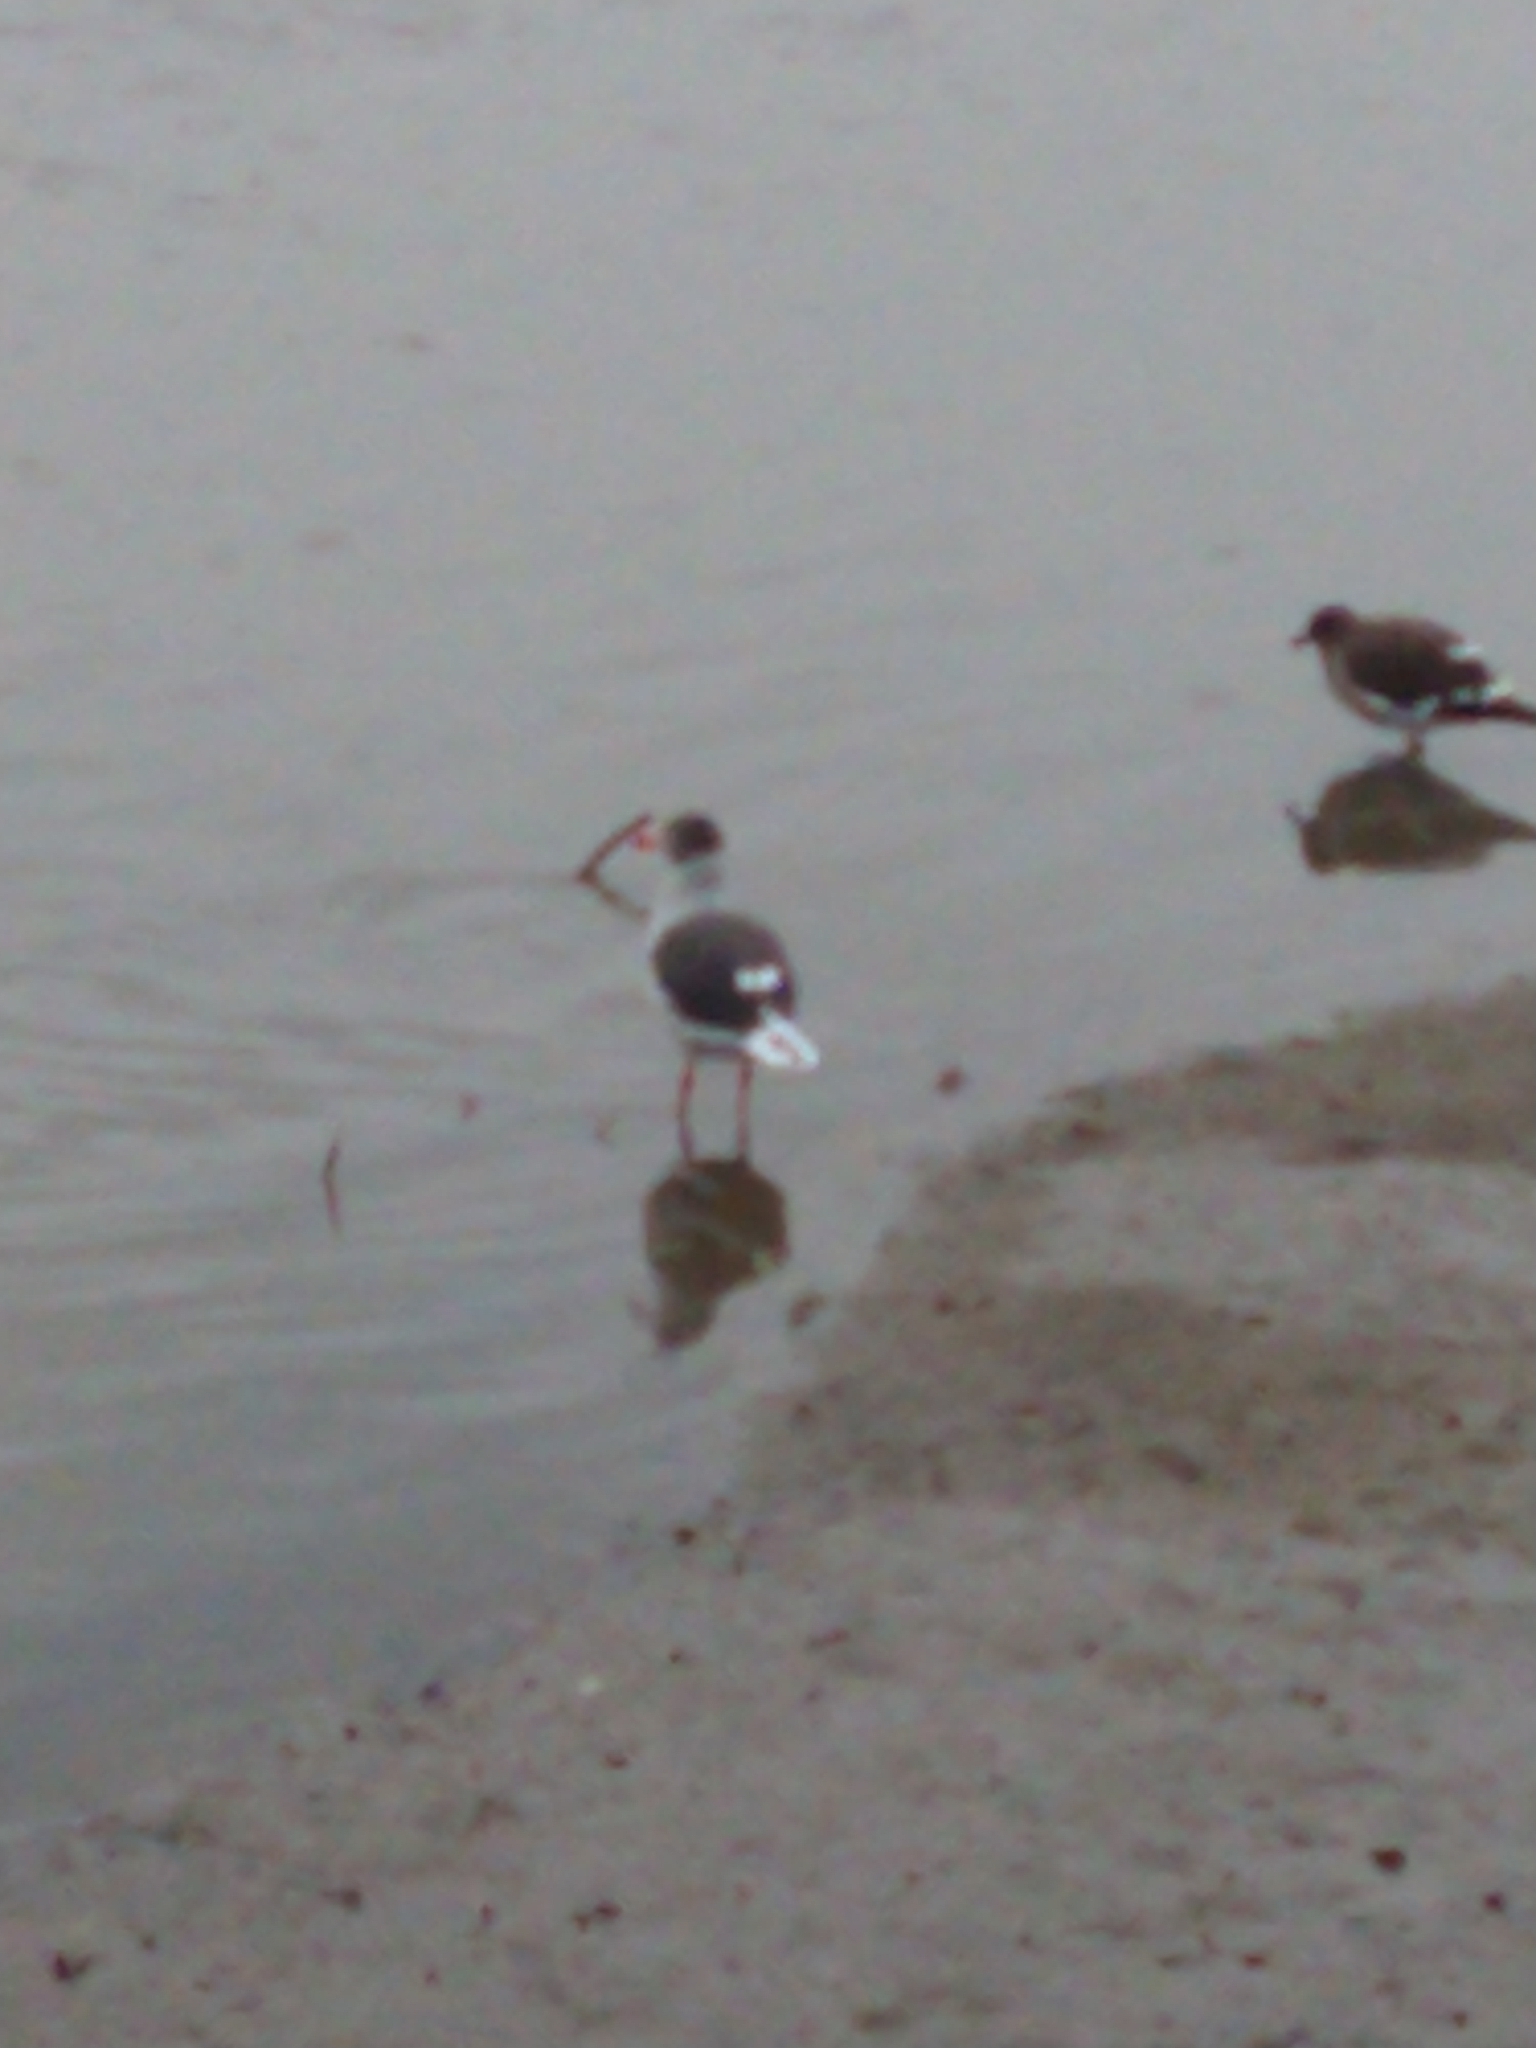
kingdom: Animalia
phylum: Chordata
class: Aves
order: Charadriiformes
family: Laridae
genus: Leucophaeus
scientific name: Leucophaeus scoresbii
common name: Dolphin gull
